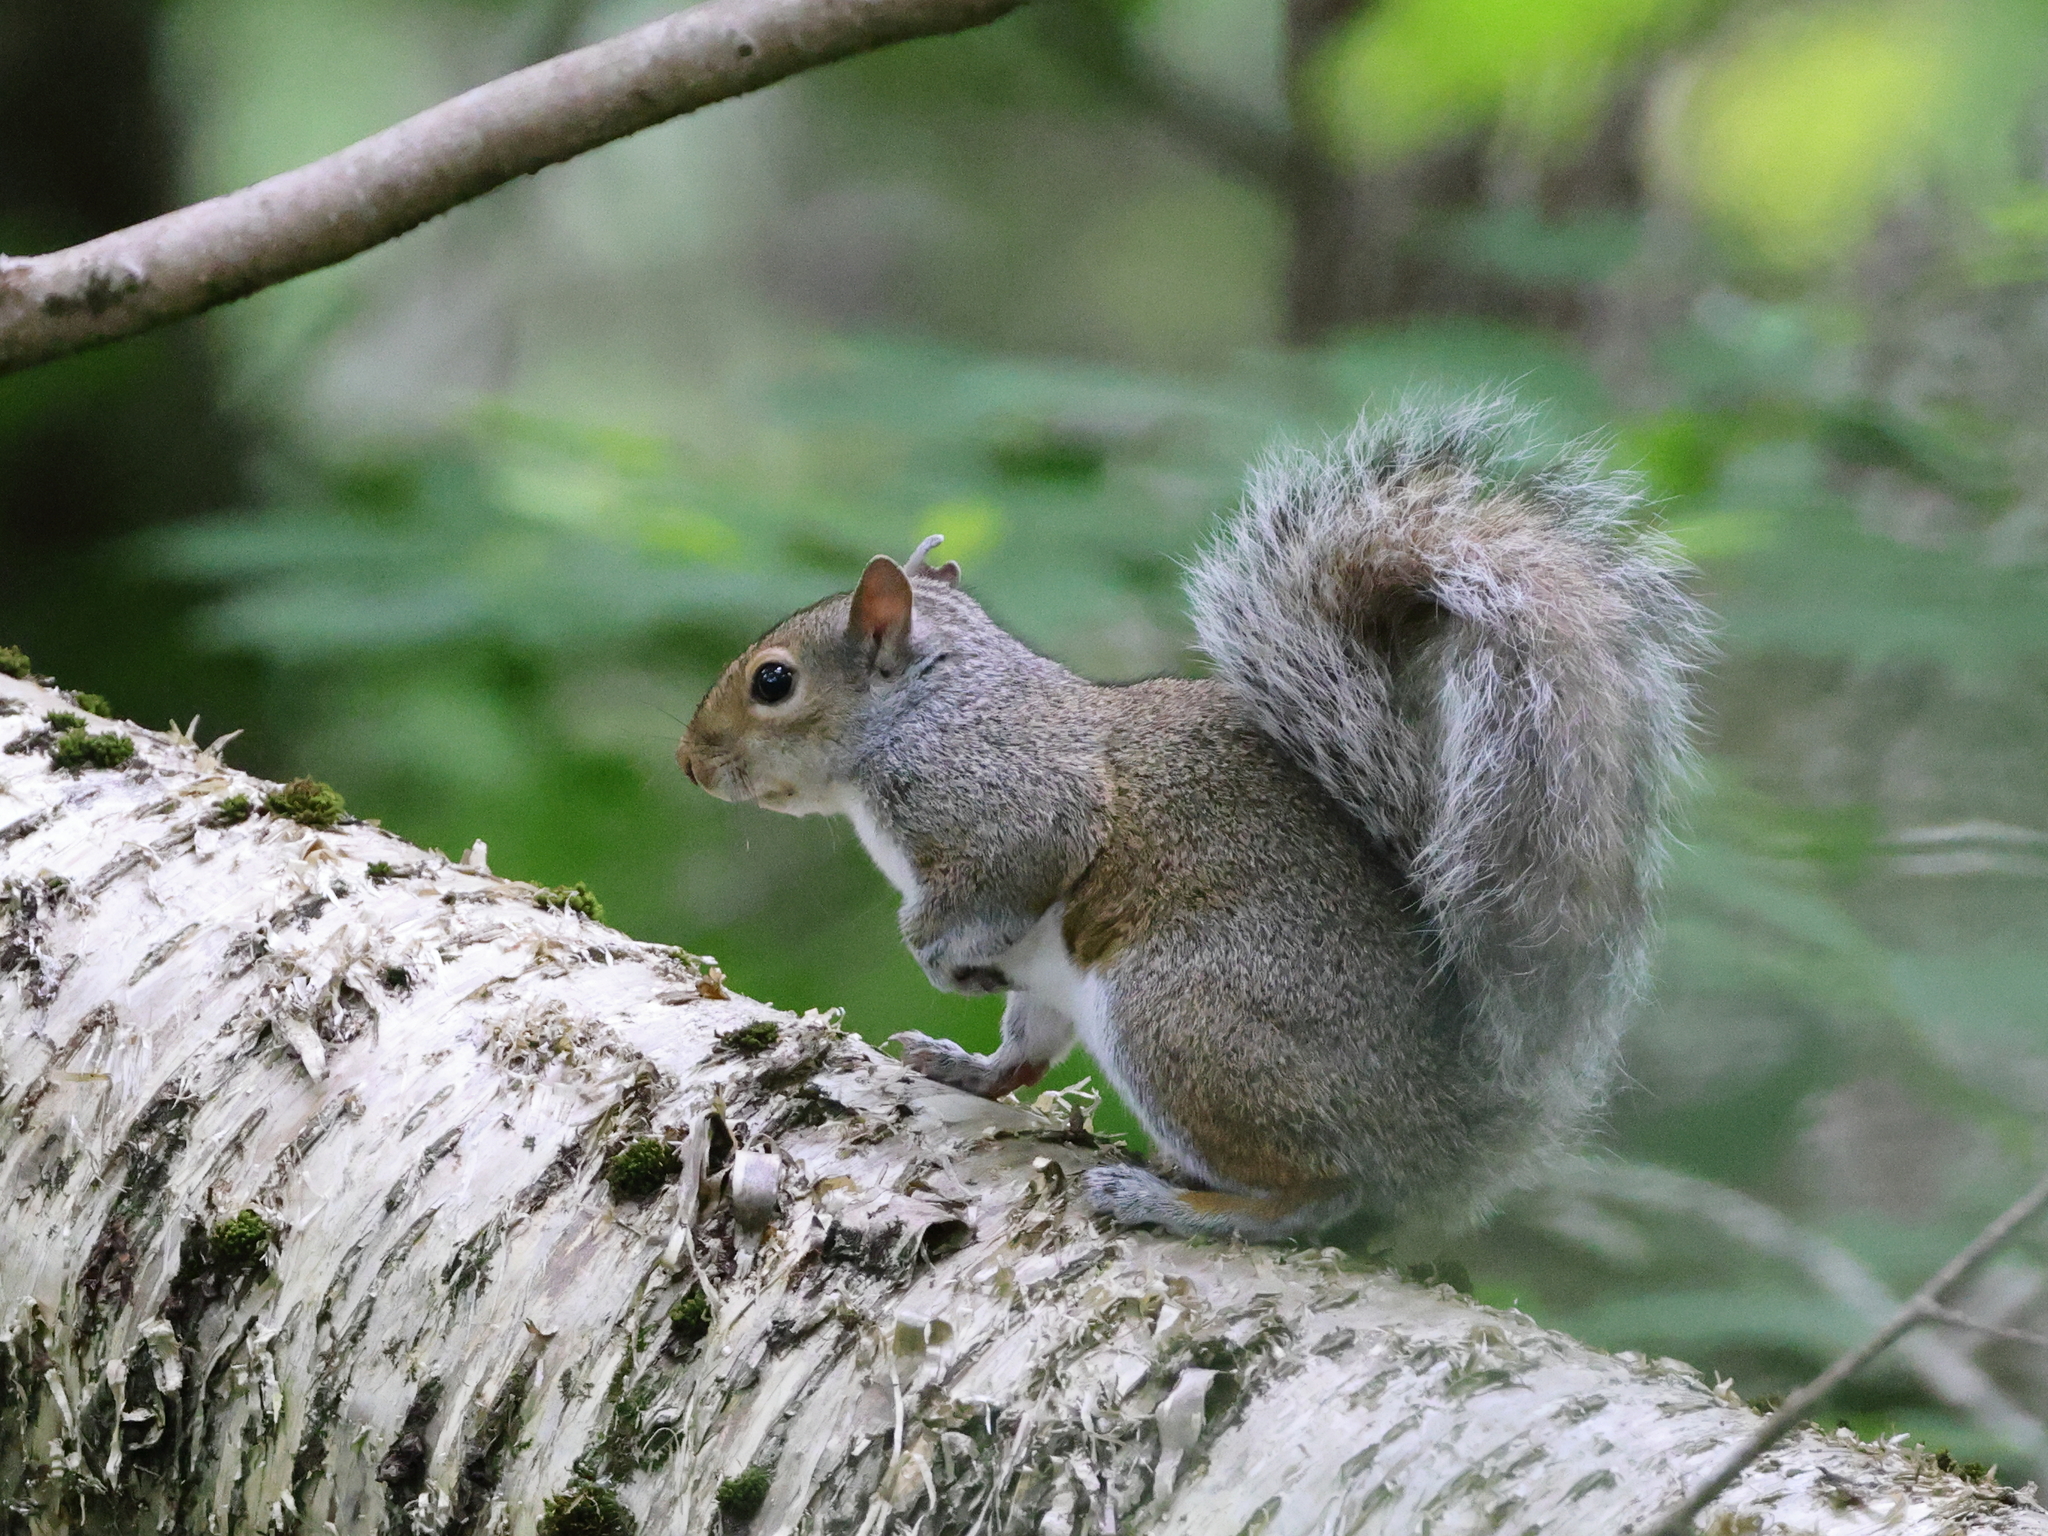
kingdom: Animalia
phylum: Chordata
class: Mammalia
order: Rodentia
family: Sciuridae
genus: Sciurus
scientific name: Sciurus carolinensis
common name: Eastern gray squirrel
